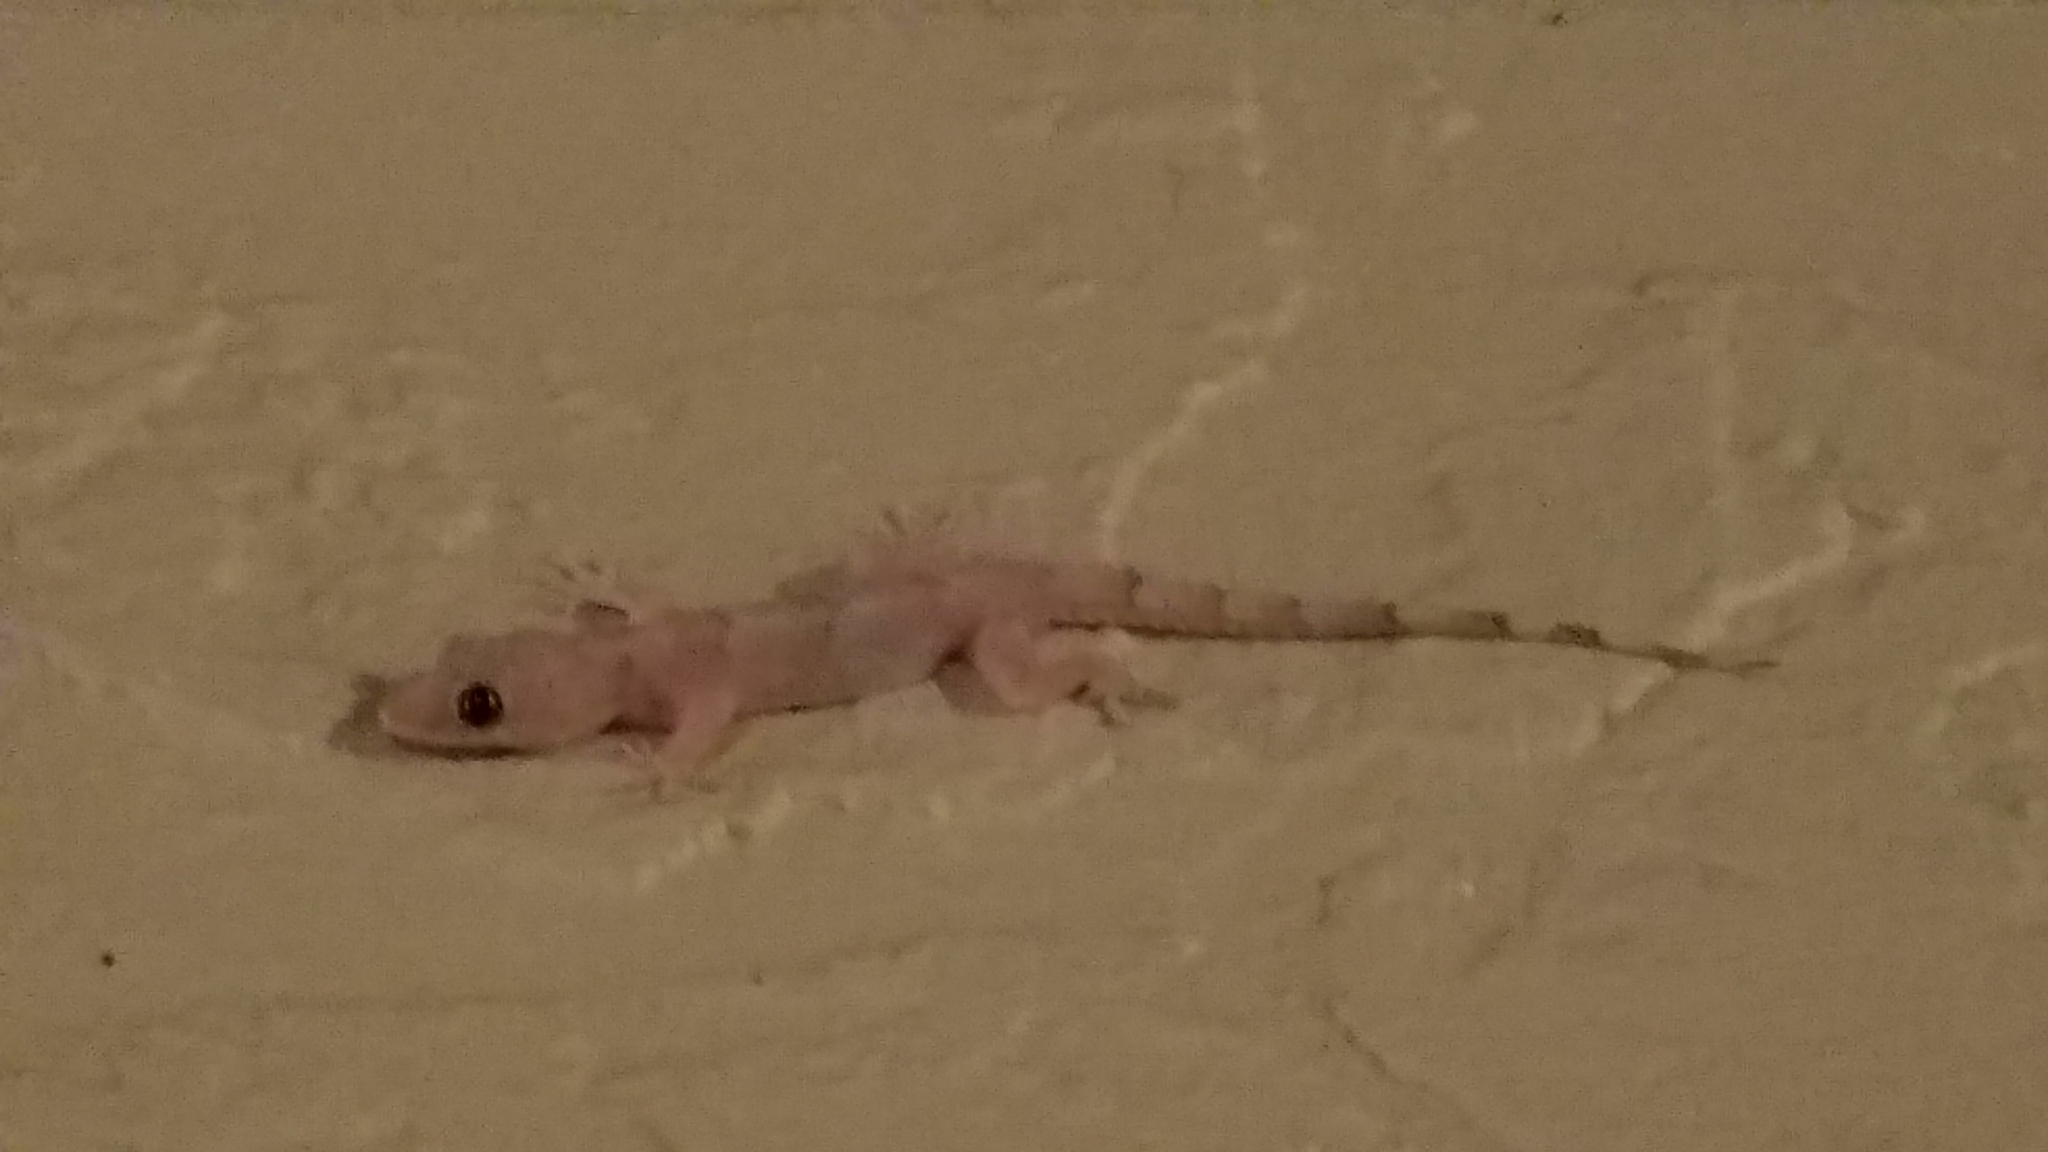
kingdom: Animalia
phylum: Chordata
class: Squamata
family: Gekkonidae
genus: Hemidactylus
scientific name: Hemidactylus mabouia
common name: House gecko
